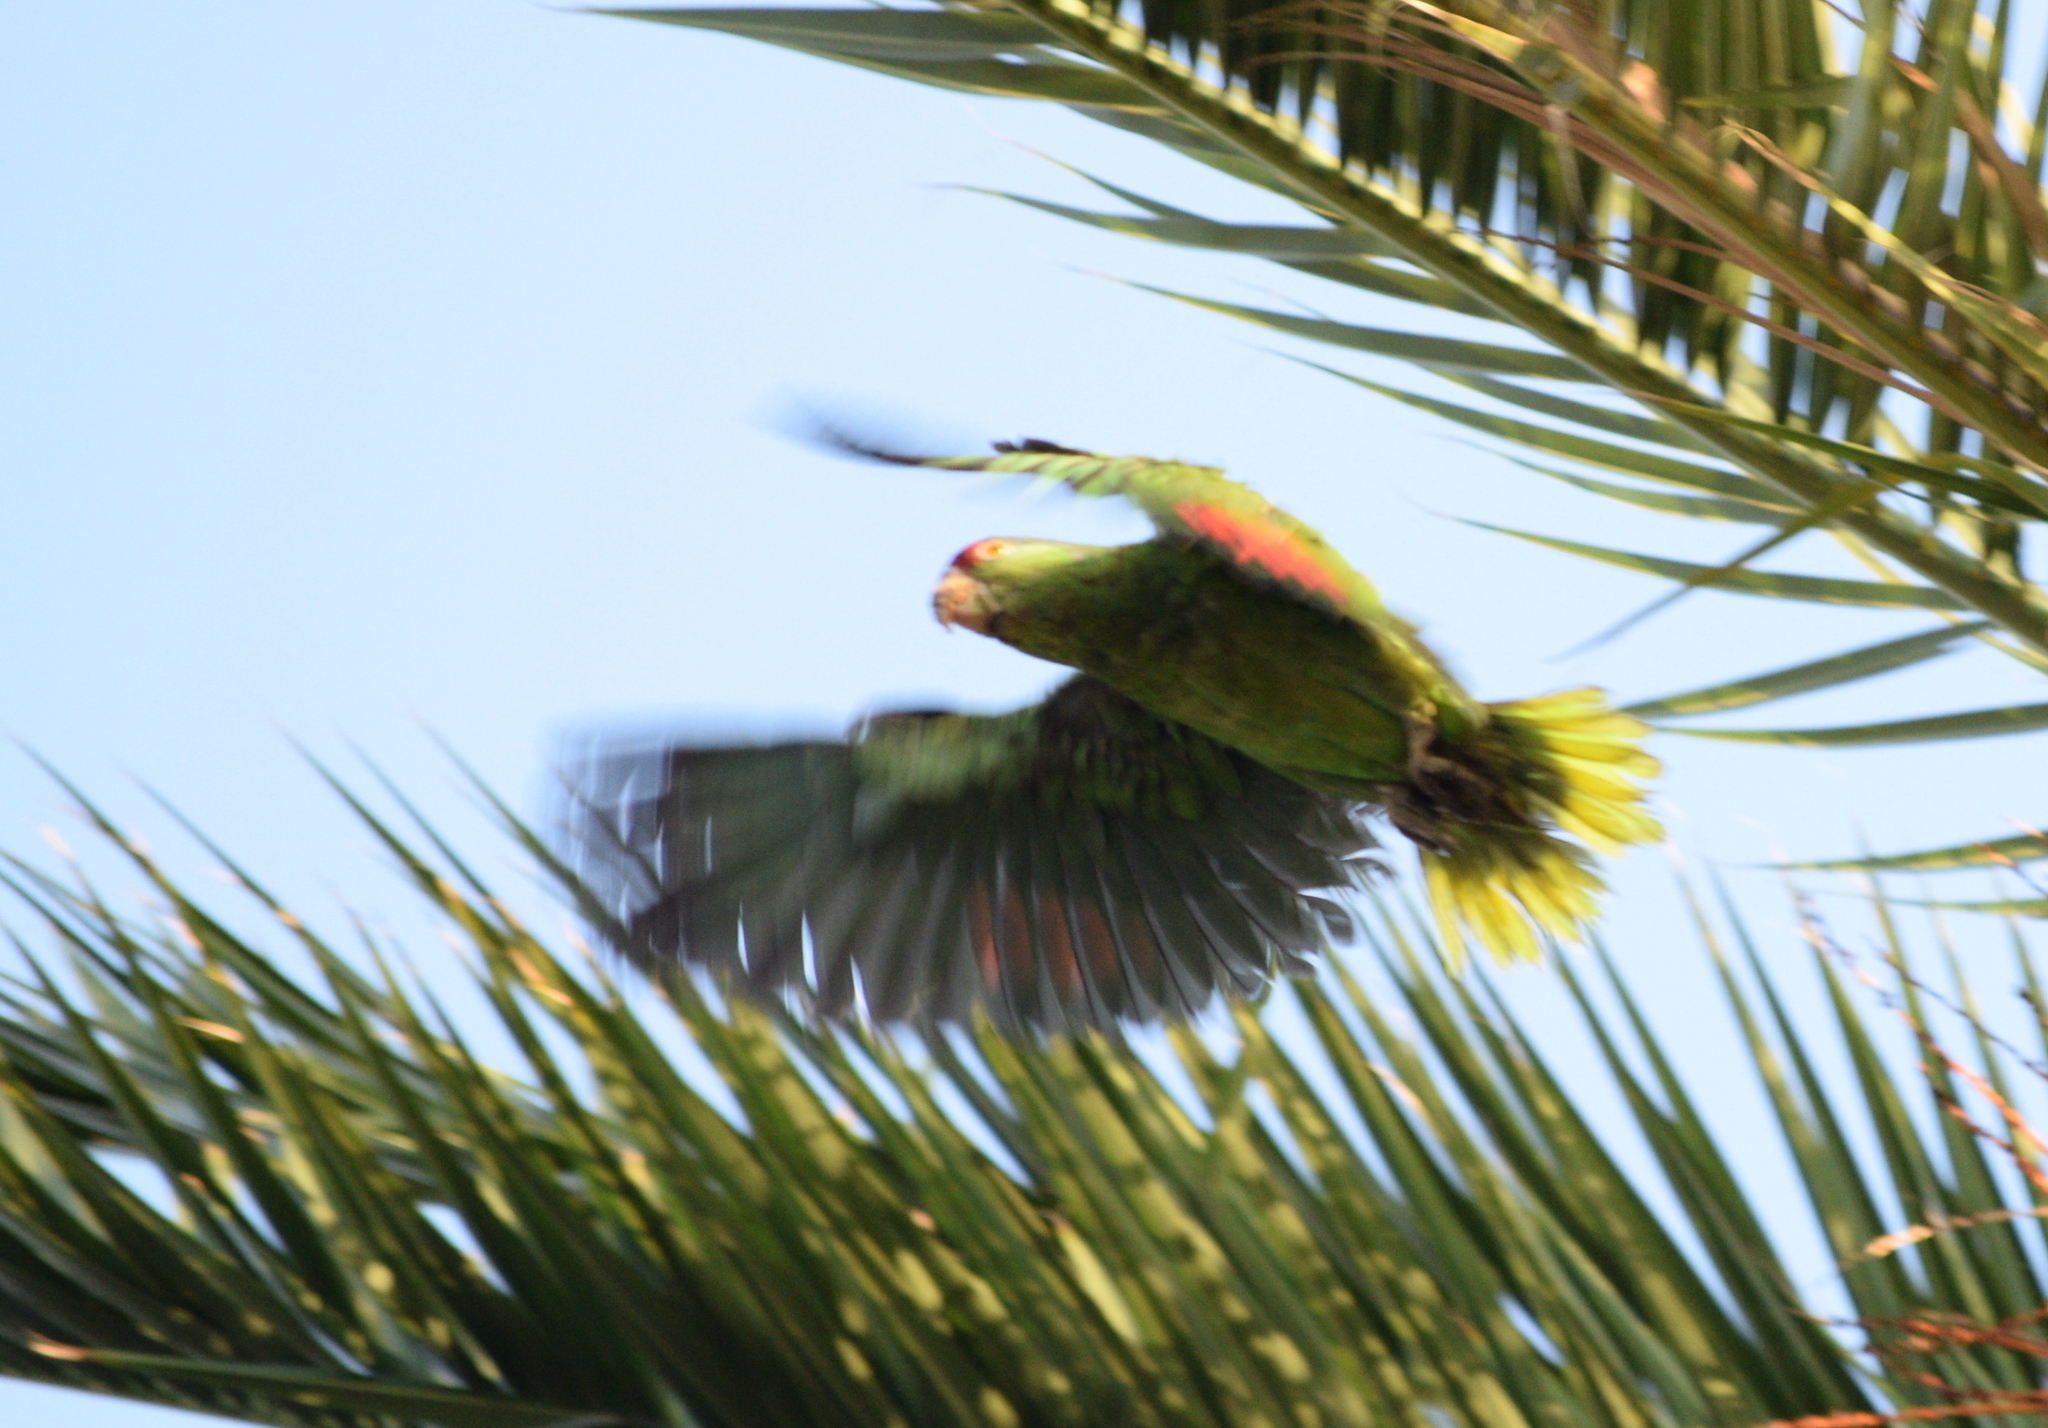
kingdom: Animalia
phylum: Chordata
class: Aves
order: Psittaciformes
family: Psittacidae
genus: Amazona
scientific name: Amazona viridigenalis
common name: Red-crowned amazon
